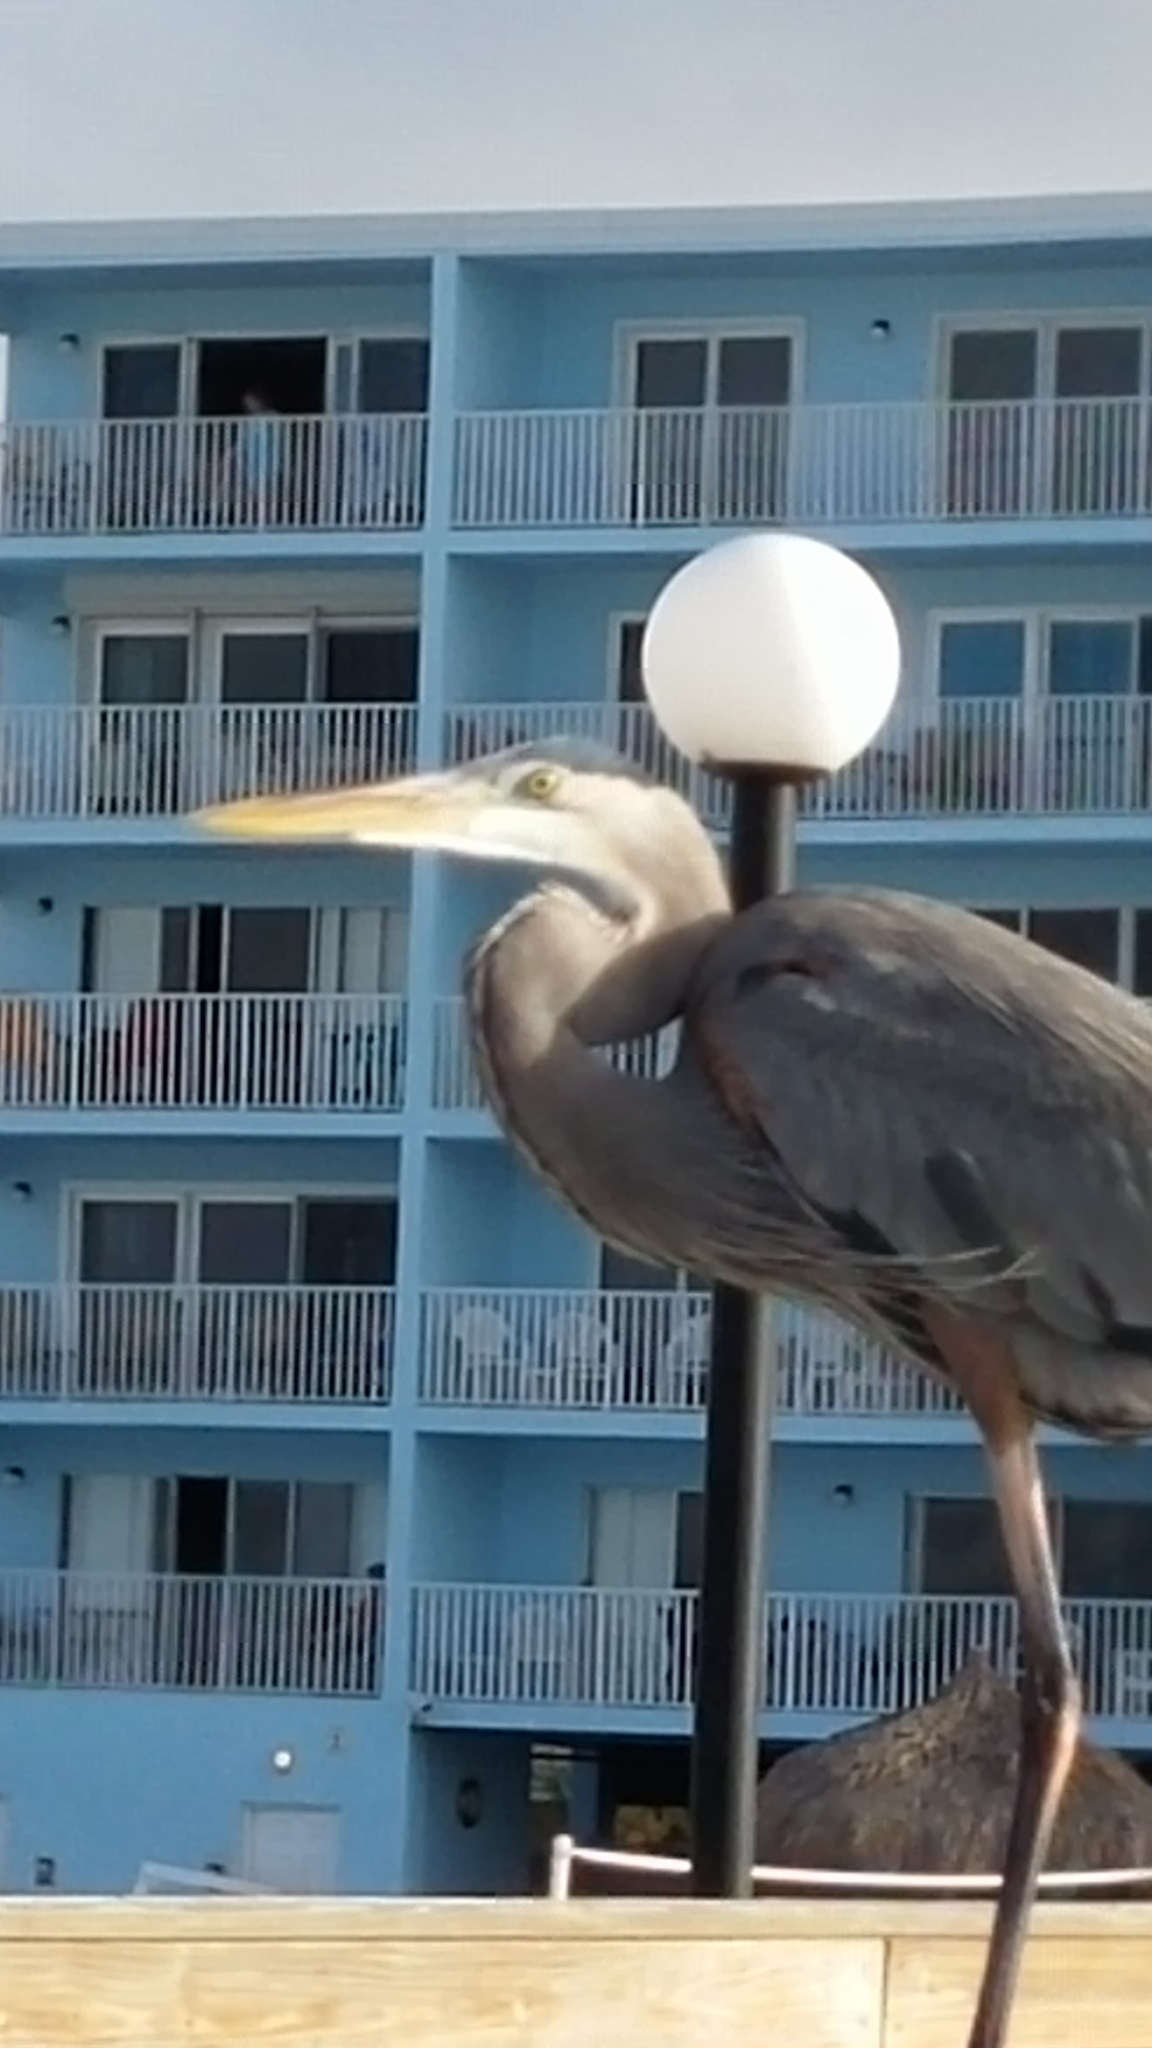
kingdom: Animalia
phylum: Chordata
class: Aves
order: Pelecaniformes
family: Ardeidae
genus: Ardea
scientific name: Ardea herodias
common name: Great blue heron
